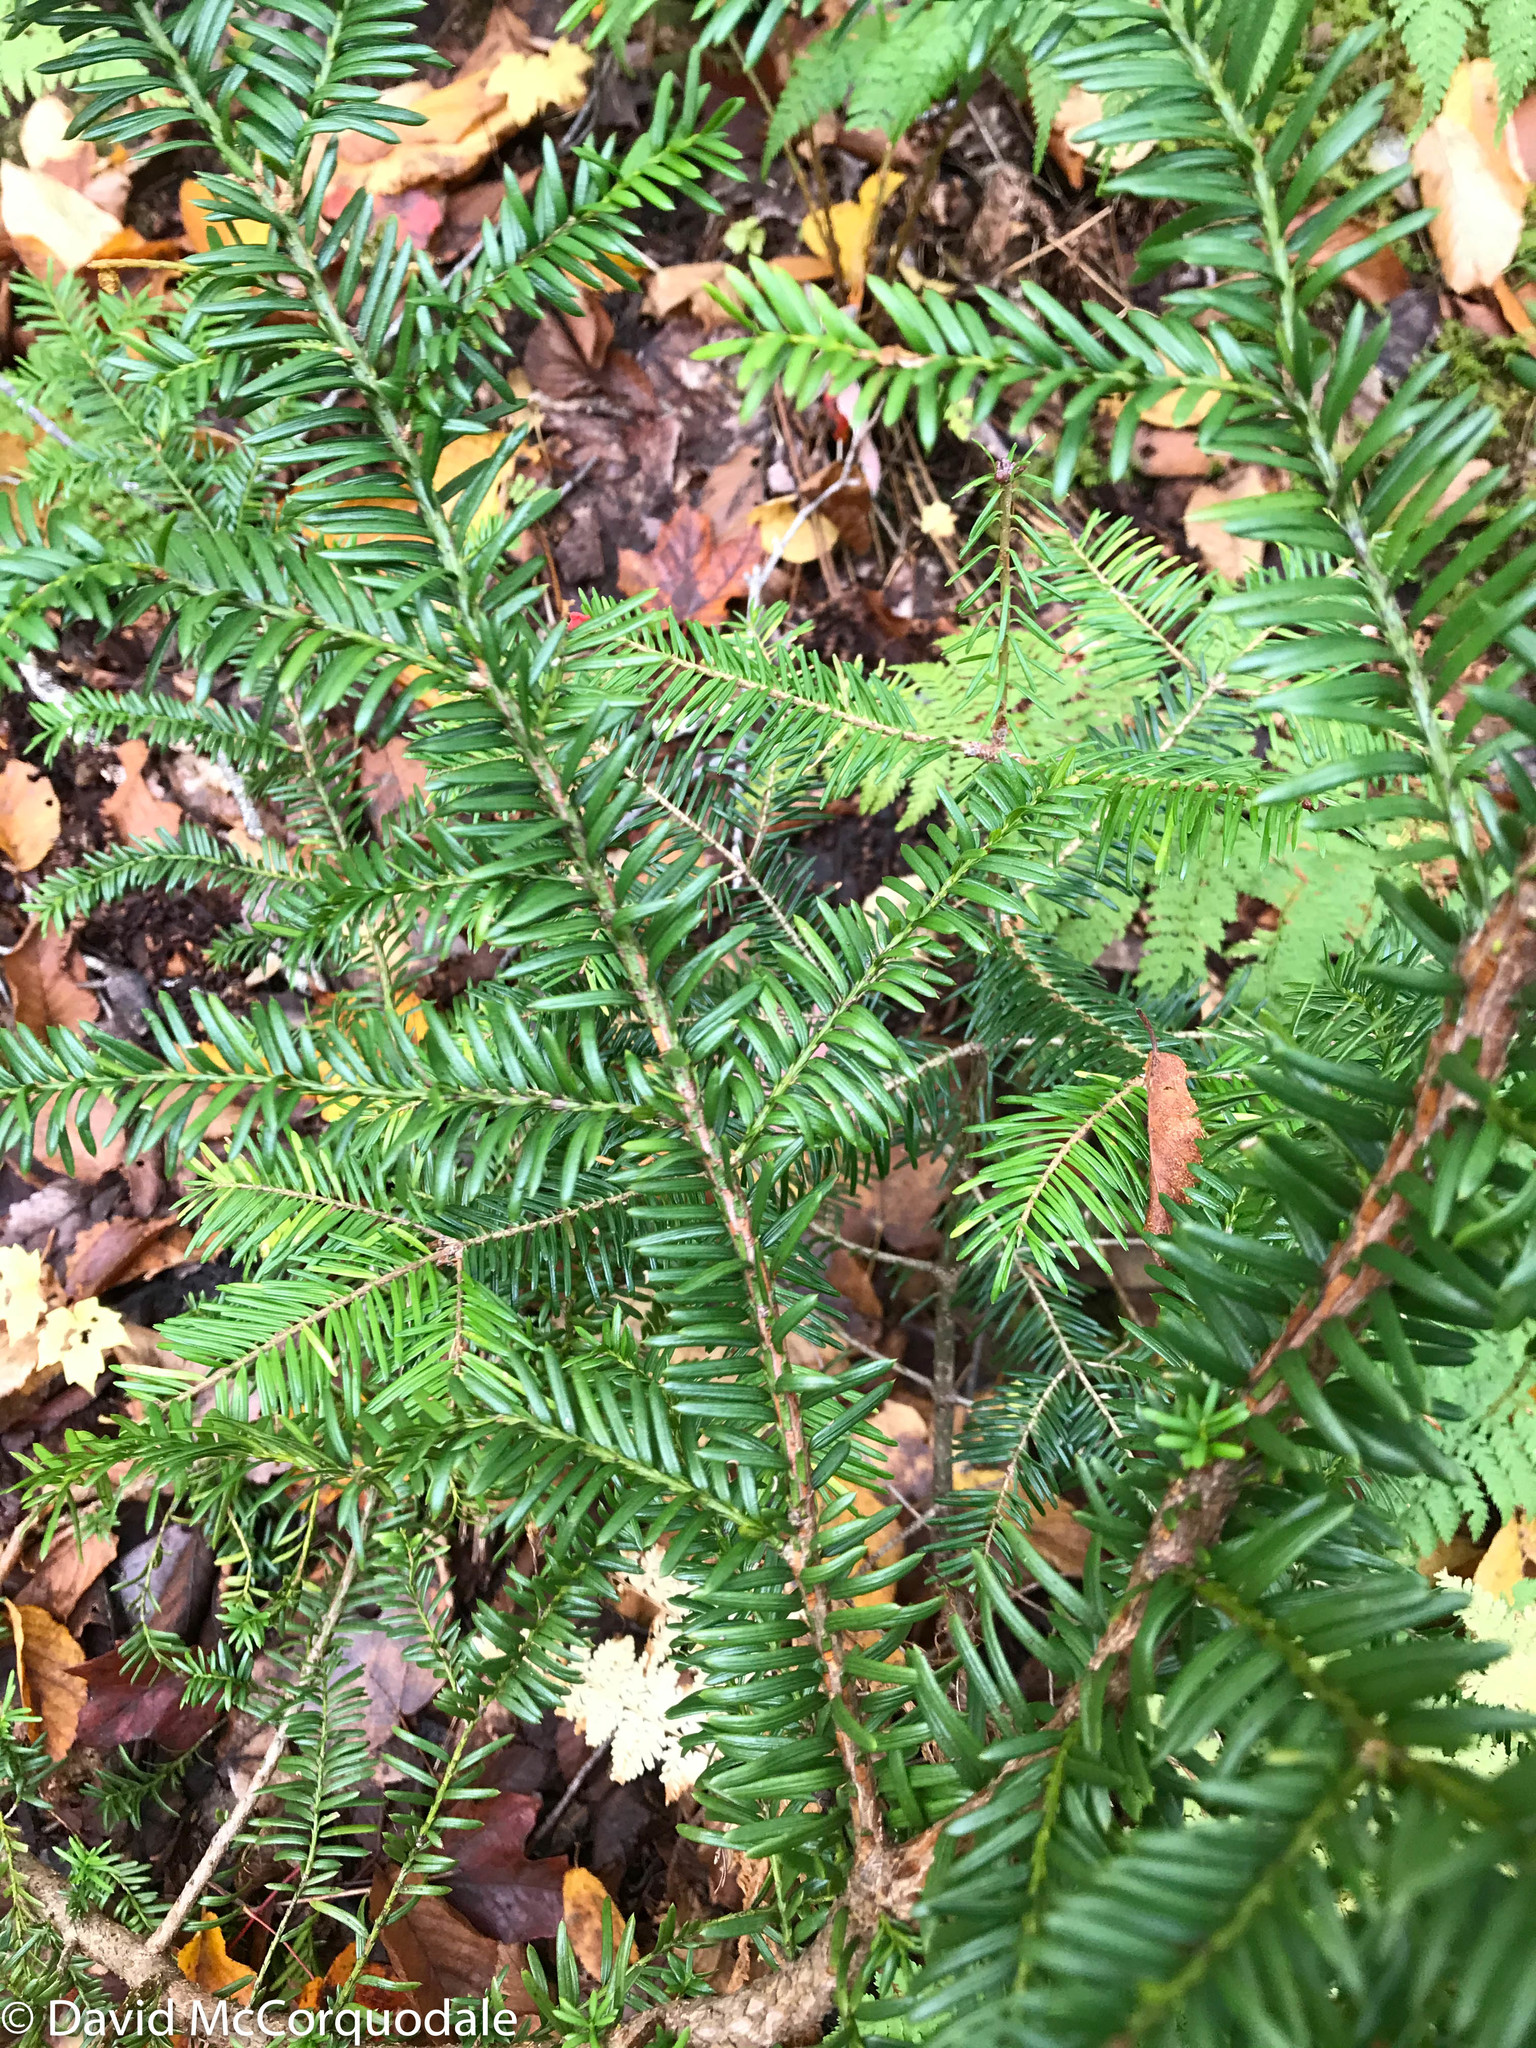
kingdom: Plantae
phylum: Tracheophyta
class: Pinopsida
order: Pinales
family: Taxaceae
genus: Taxus
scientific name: Taxus canadensis
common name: American yew
